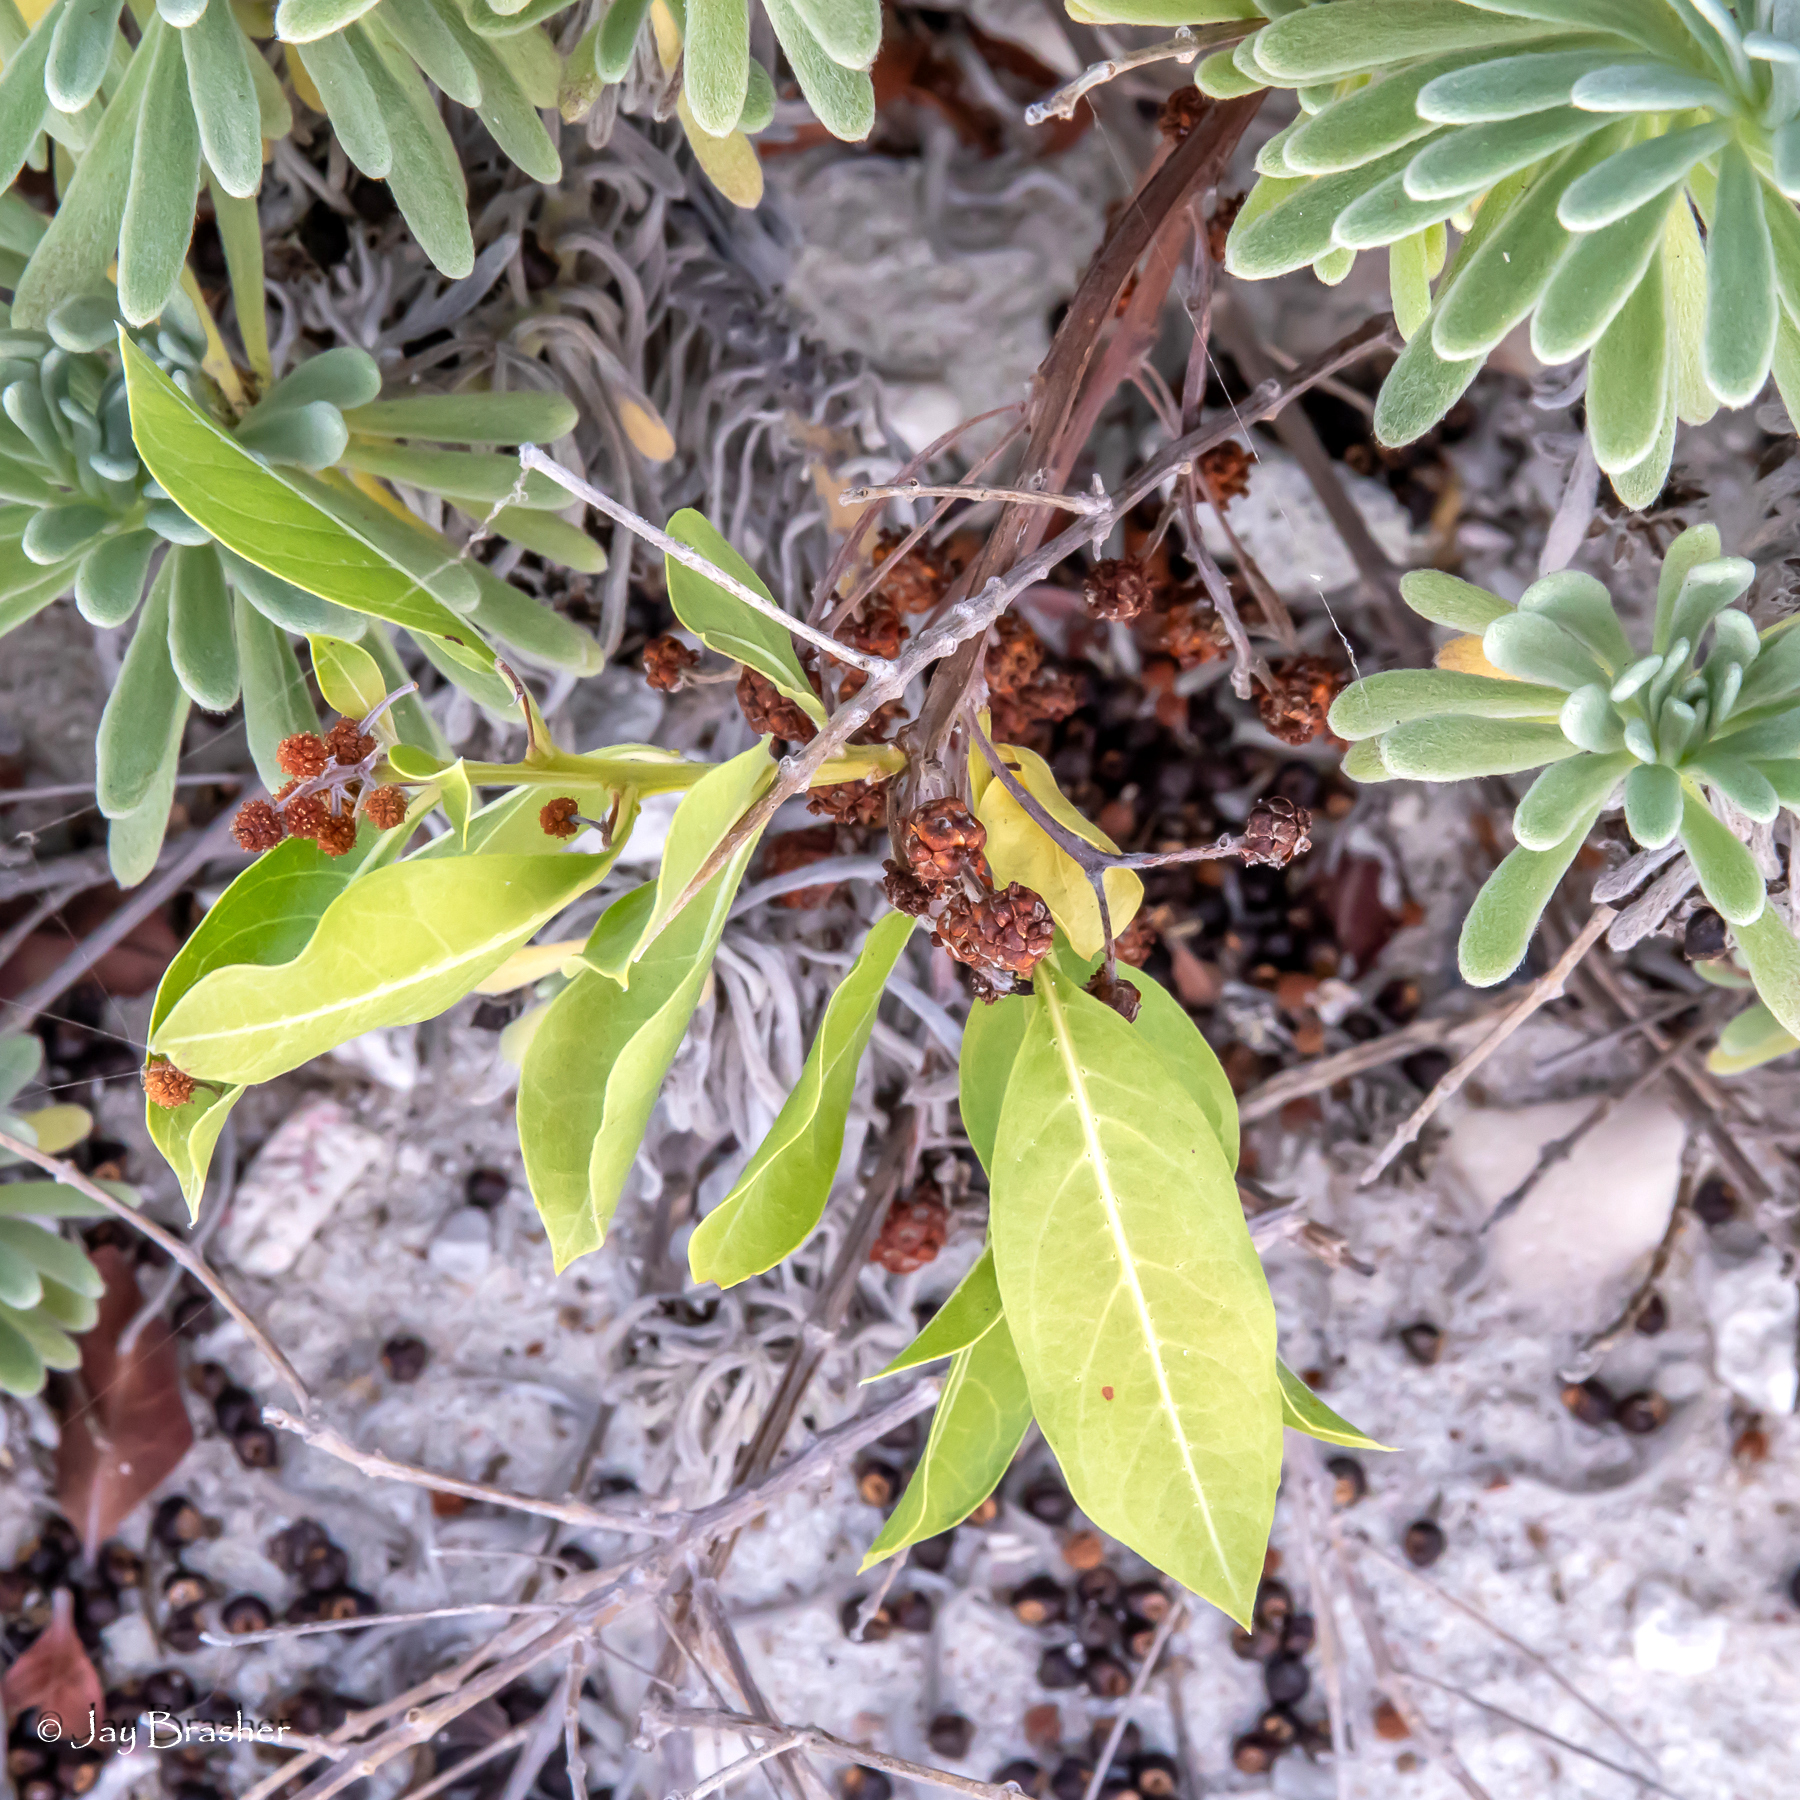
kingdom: Plantae
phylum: Tracheophyta
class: Magnoliopsida
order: Myrtales
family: Combretaceae
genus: Conocarpus
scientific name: Conocarpus erectus
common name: Button mangrove
